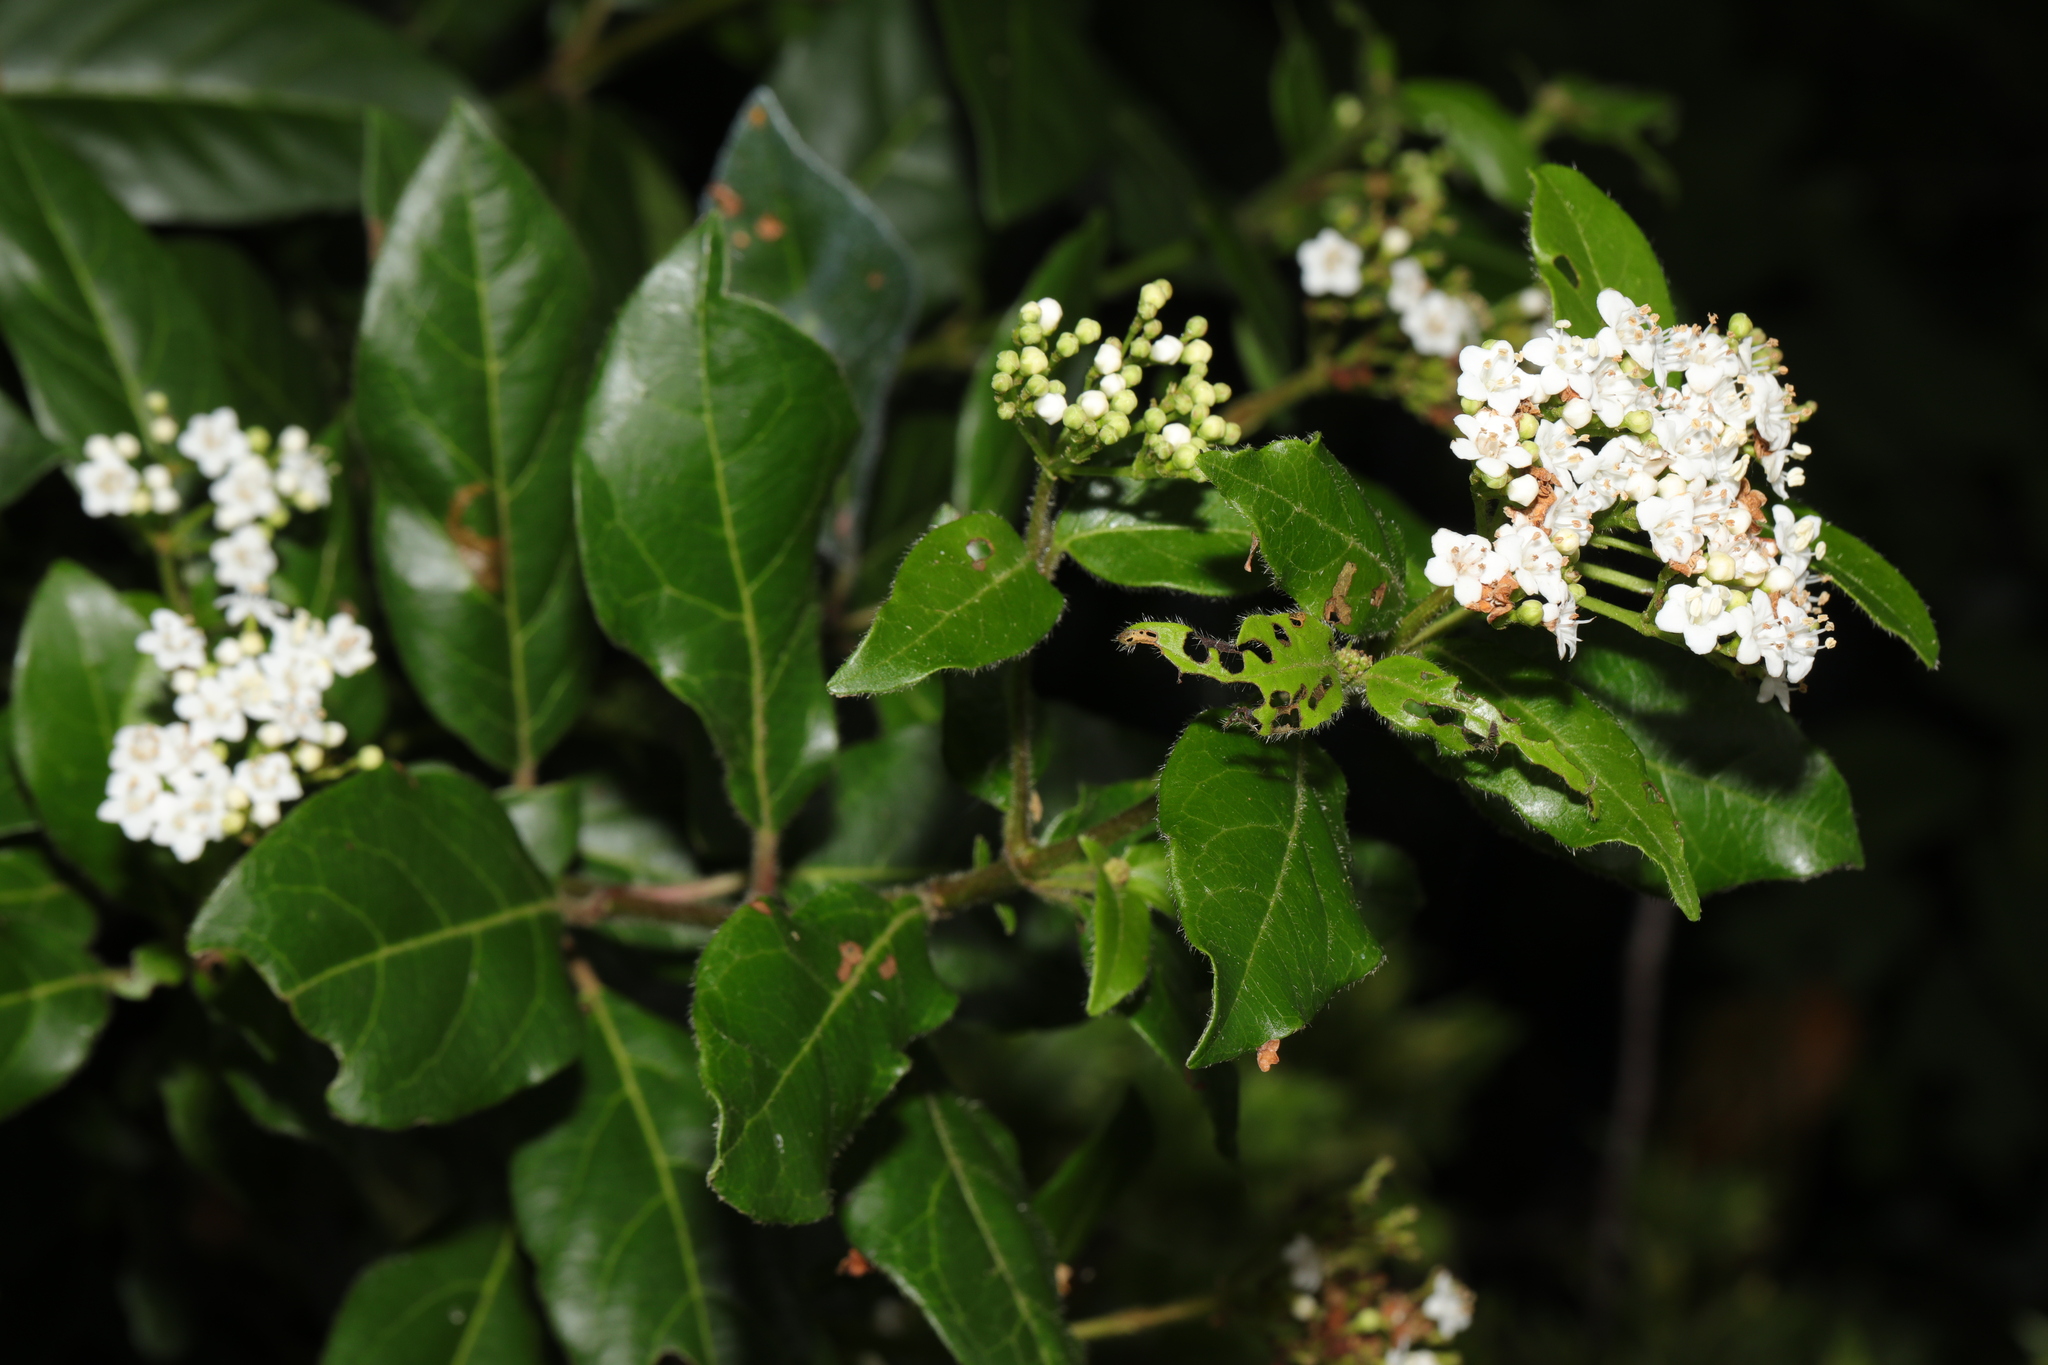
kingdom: Plantae
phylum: Tracheophyta
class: Magnoliopsida
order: Dipsacales
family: Viburnaceae
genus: Viburnum
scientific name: Viburnum tinus
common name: Laurustinus
